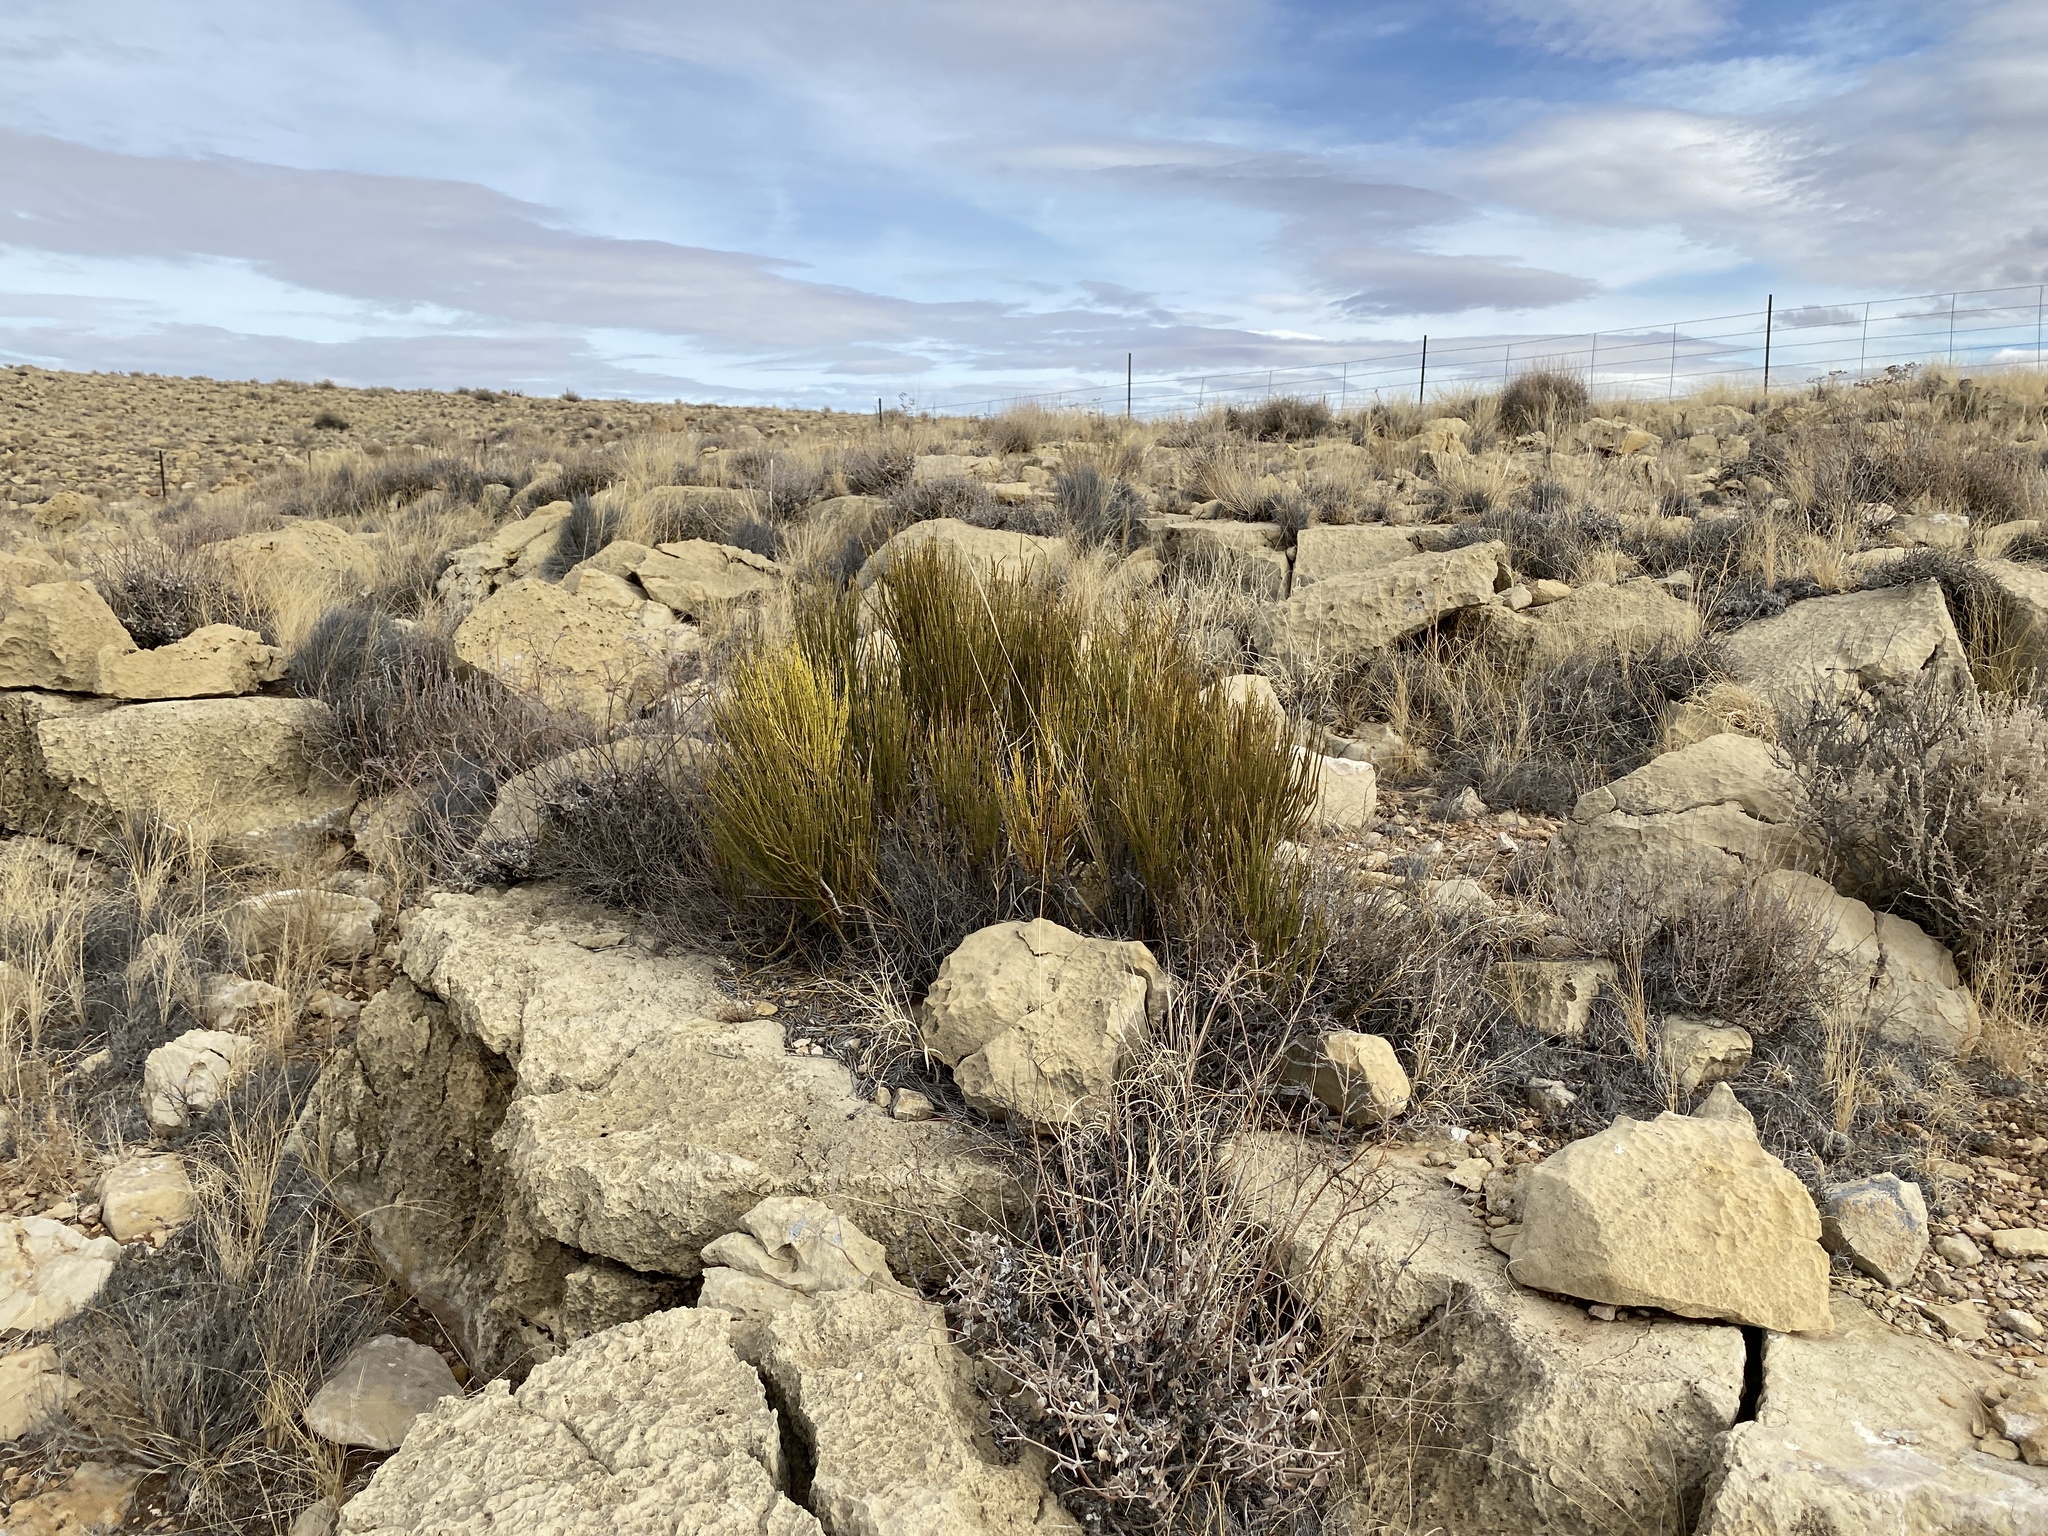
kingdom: Plantae
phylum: Tracheophyta
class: Gnetopsida
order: Ephedrales
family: Ephedraceae
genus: Ephedra
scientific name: Ephedra viridis
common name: Green ephedra
